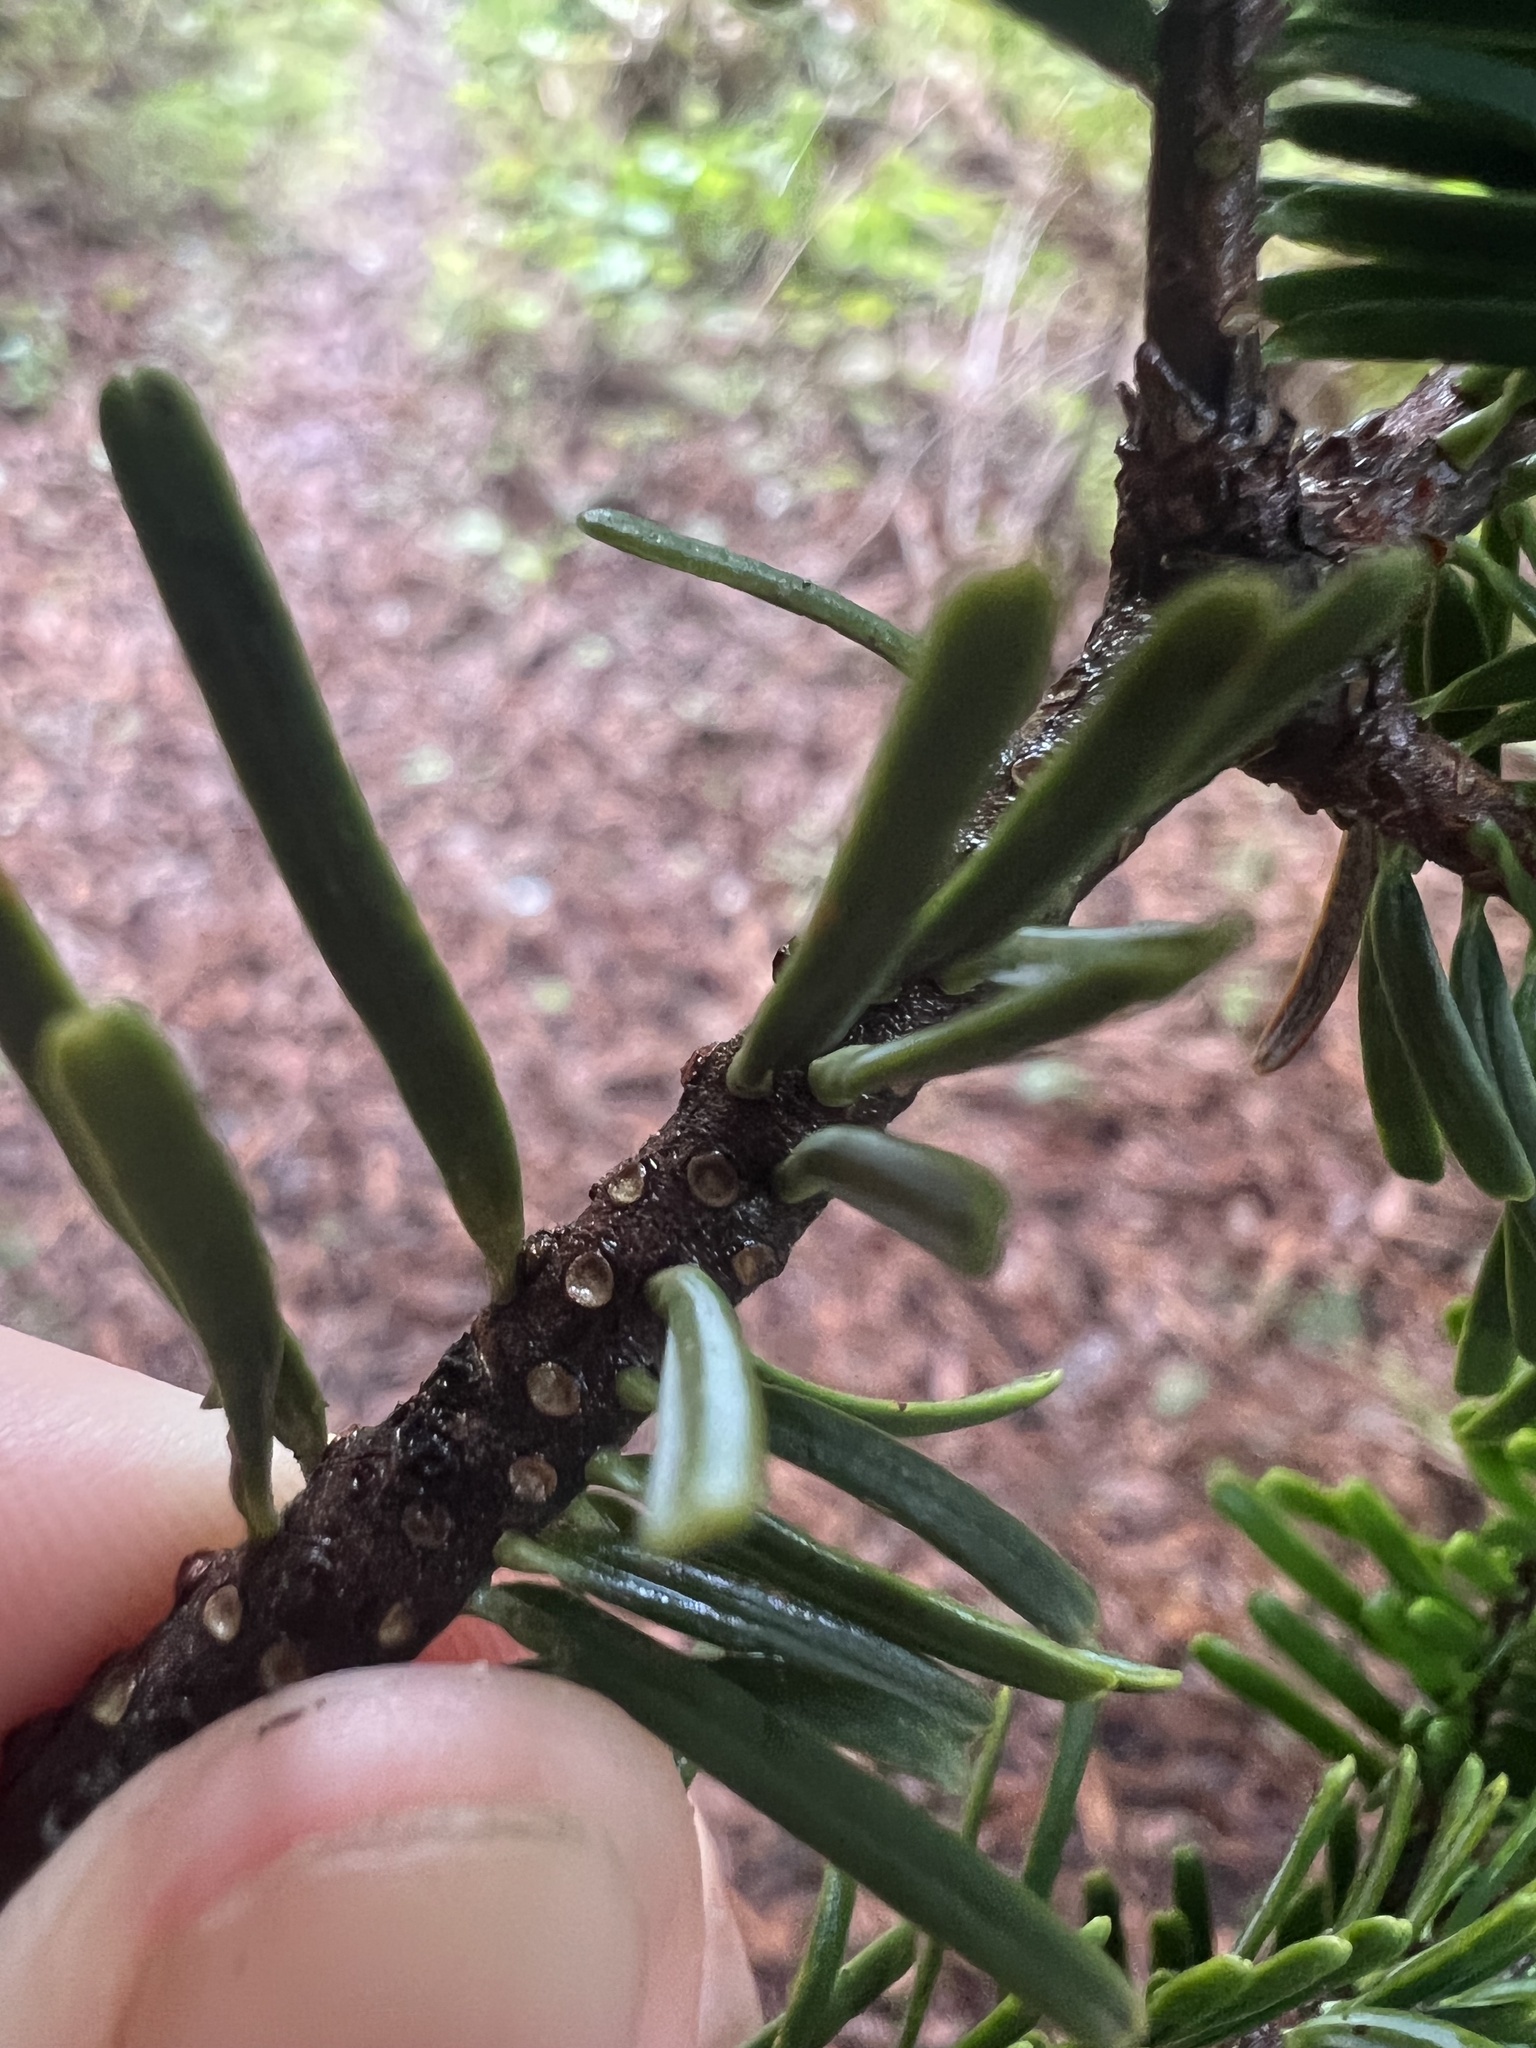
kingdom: Plantae
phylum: Tracheophyta
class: Pinopsida
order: Pinales
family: Pinaceae
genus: Abies
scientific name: Abies grandis
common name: Giant fir
